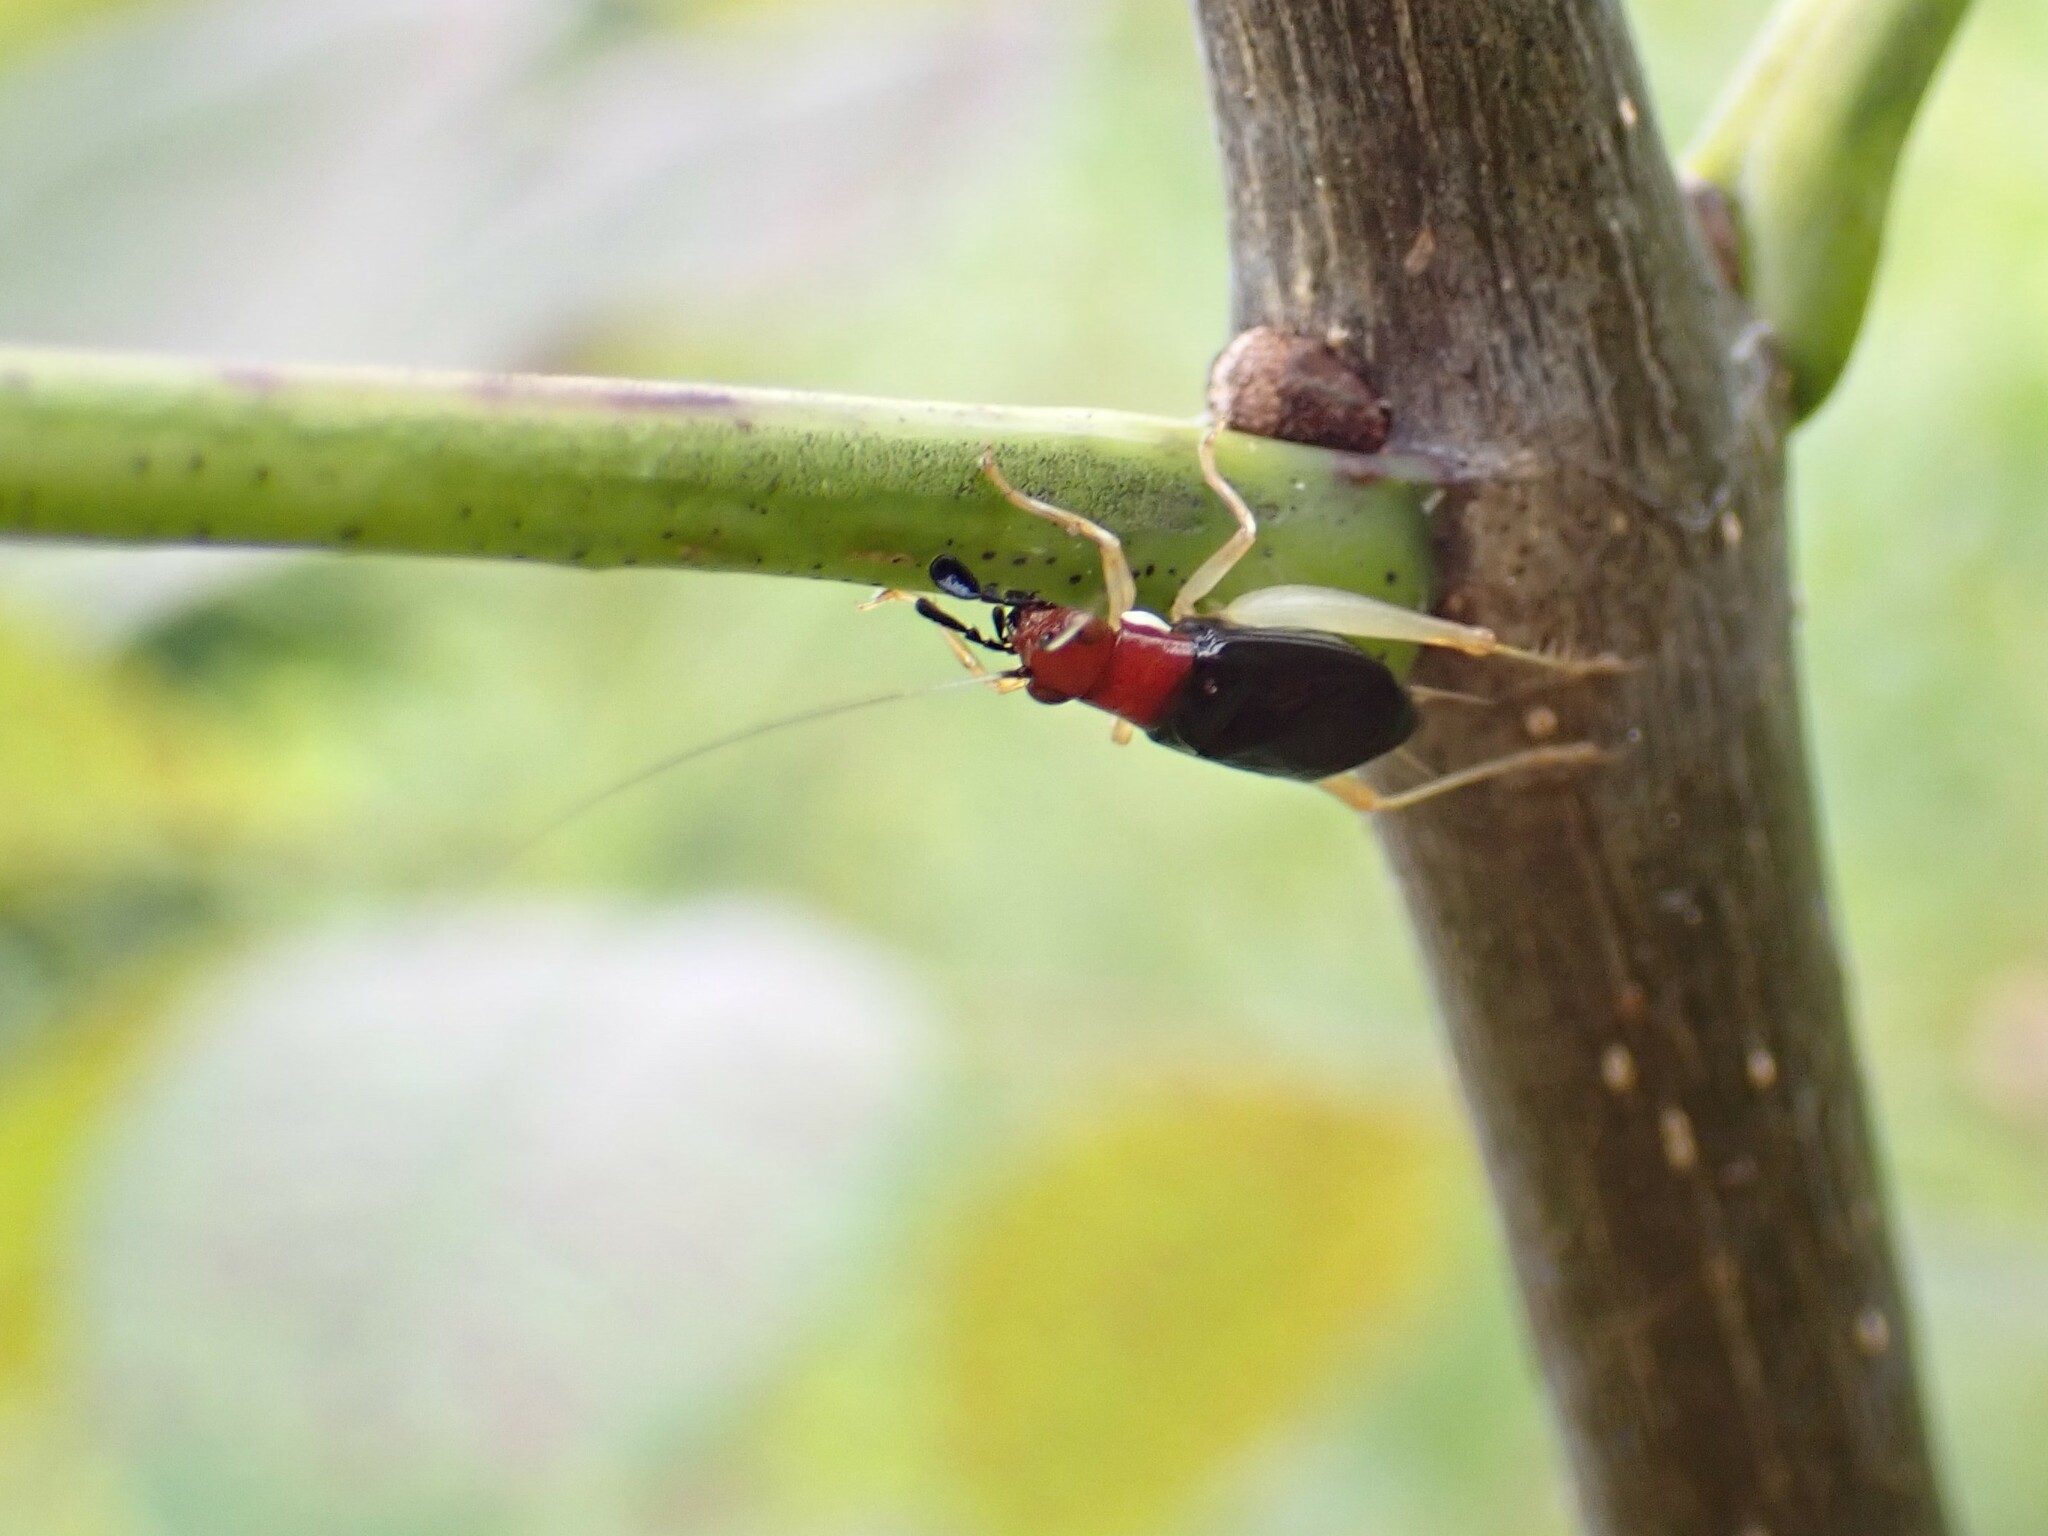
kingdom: Animalia
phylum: Arthropoda
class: Insecta
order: Orthoptera
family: Trigonidiidae
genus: Phyllopalpus
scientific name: Phyllopalpus pulchellus
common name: Handsome trig
